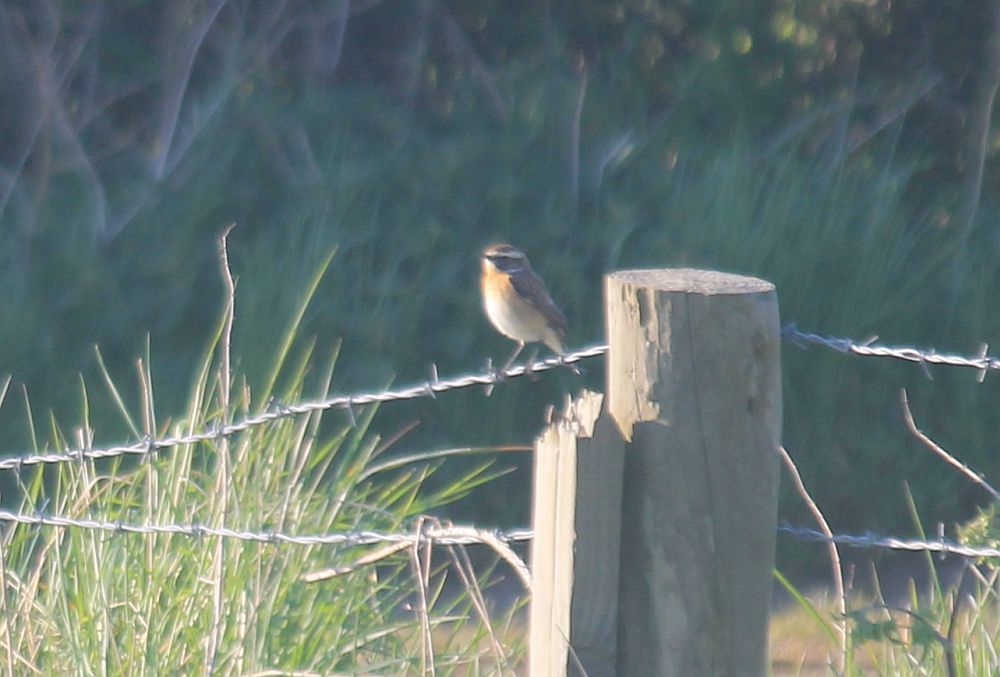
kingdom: Animalia
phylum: Chordata
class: Aves
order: Passeriformes
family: Muscicapidae
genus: Saxicola
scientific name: Saxicola rubetra
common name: Whinchat
